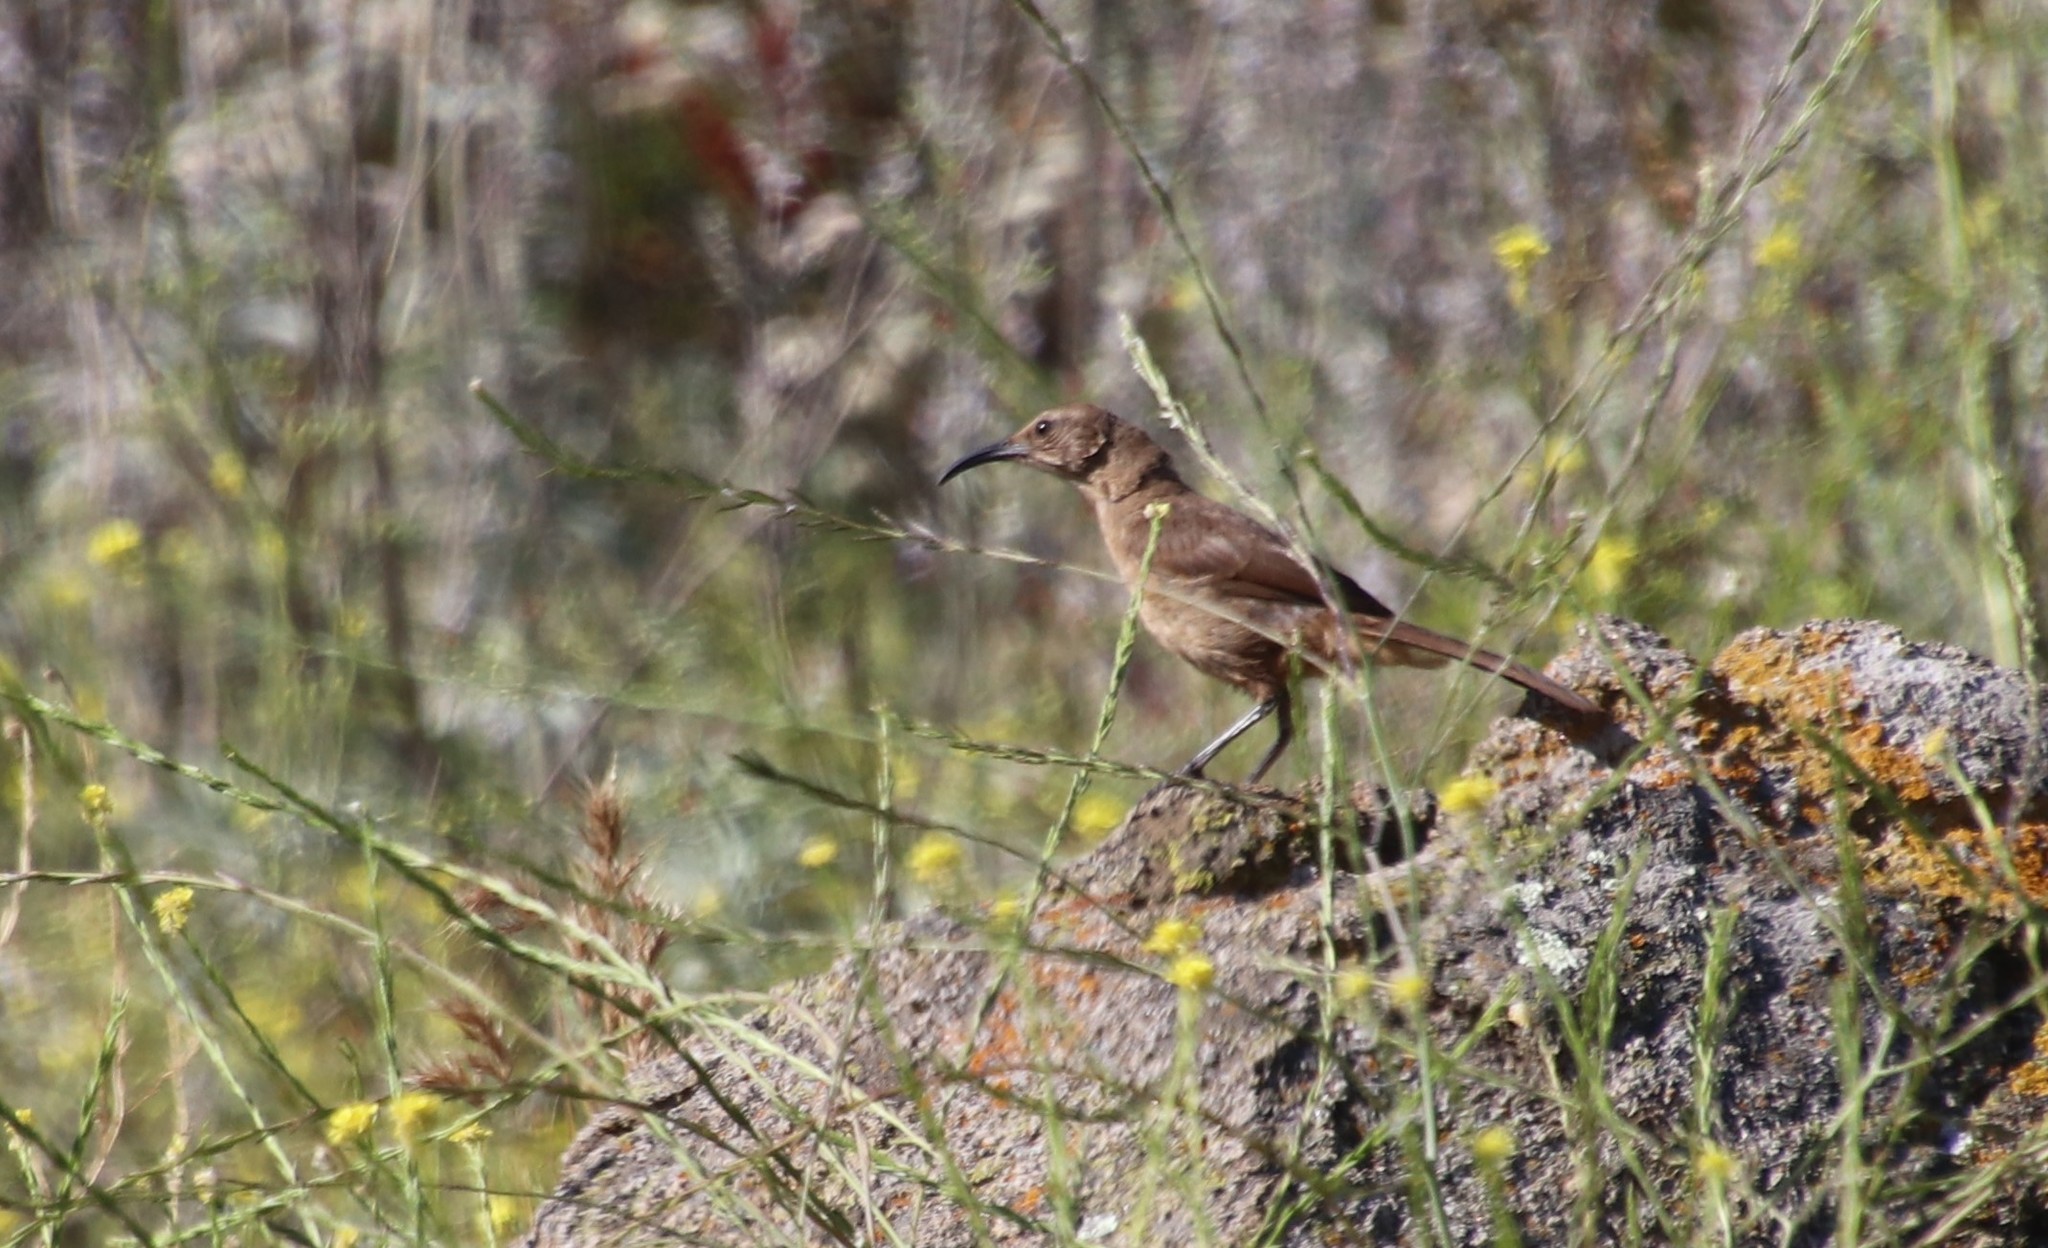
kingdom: Animalia
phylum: Chordata
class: Aves
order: Passeriformes
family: Mimidae
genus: Toxostoma
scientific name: Toxostoma redivivum
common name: California thrasher
